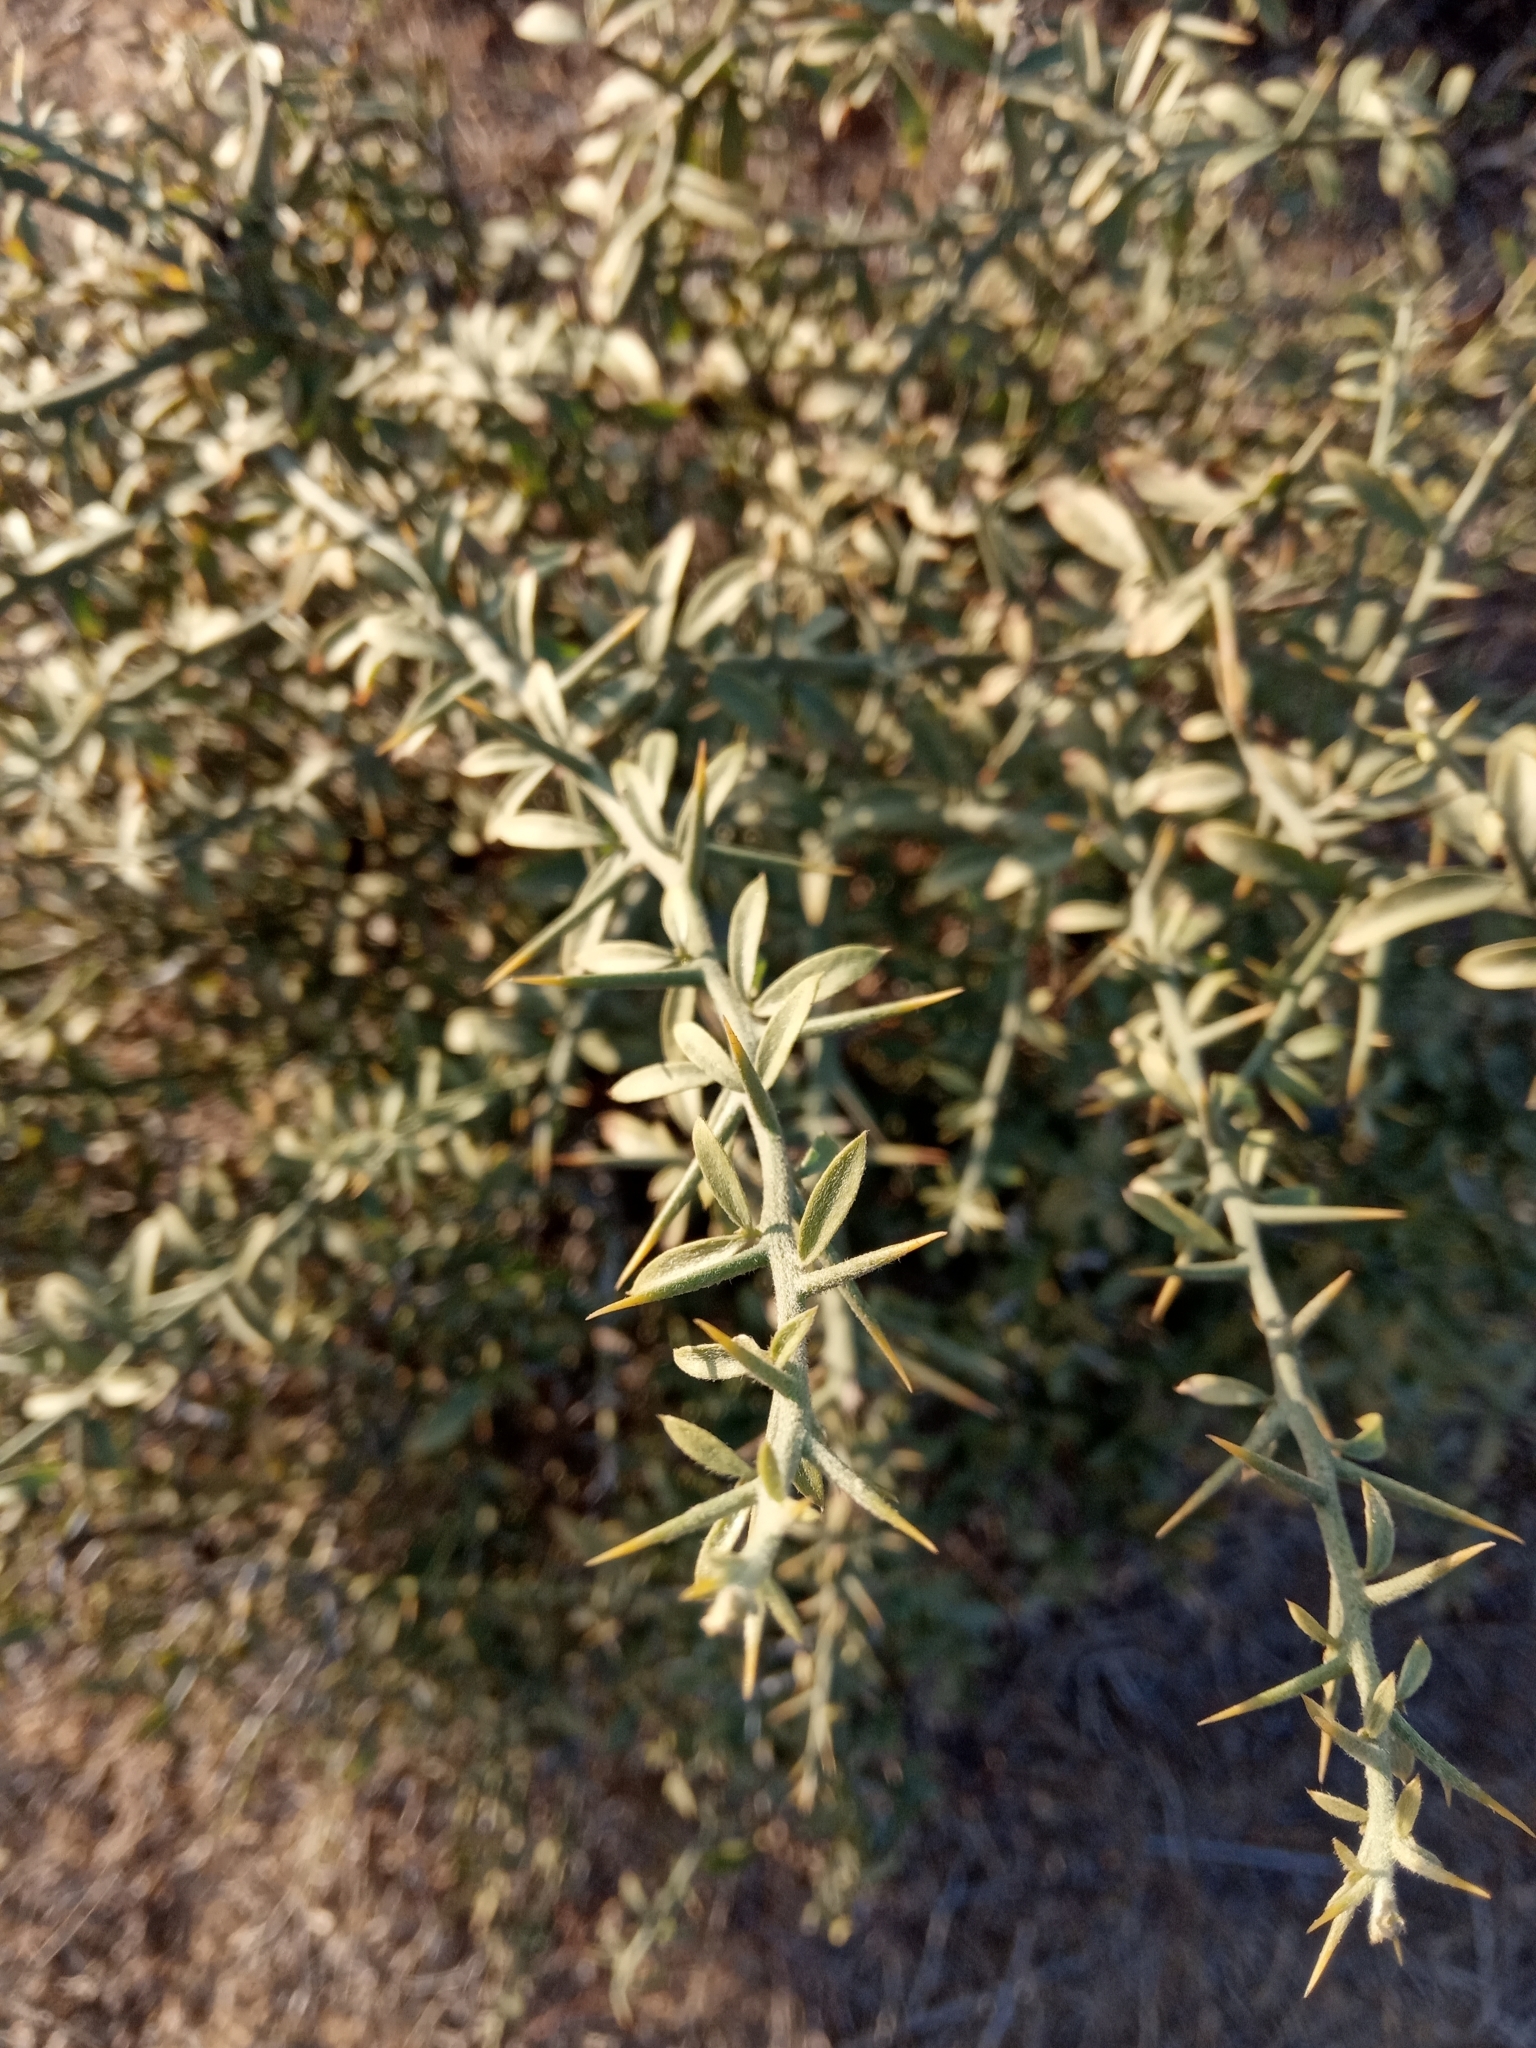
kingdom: Plantae
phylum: Tracheophyta
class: Magnoliopsida
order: Zygophyllales
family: Zygophyllaceae
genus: Balanites
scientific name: Balanites aegyptiaca
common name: Balanites
